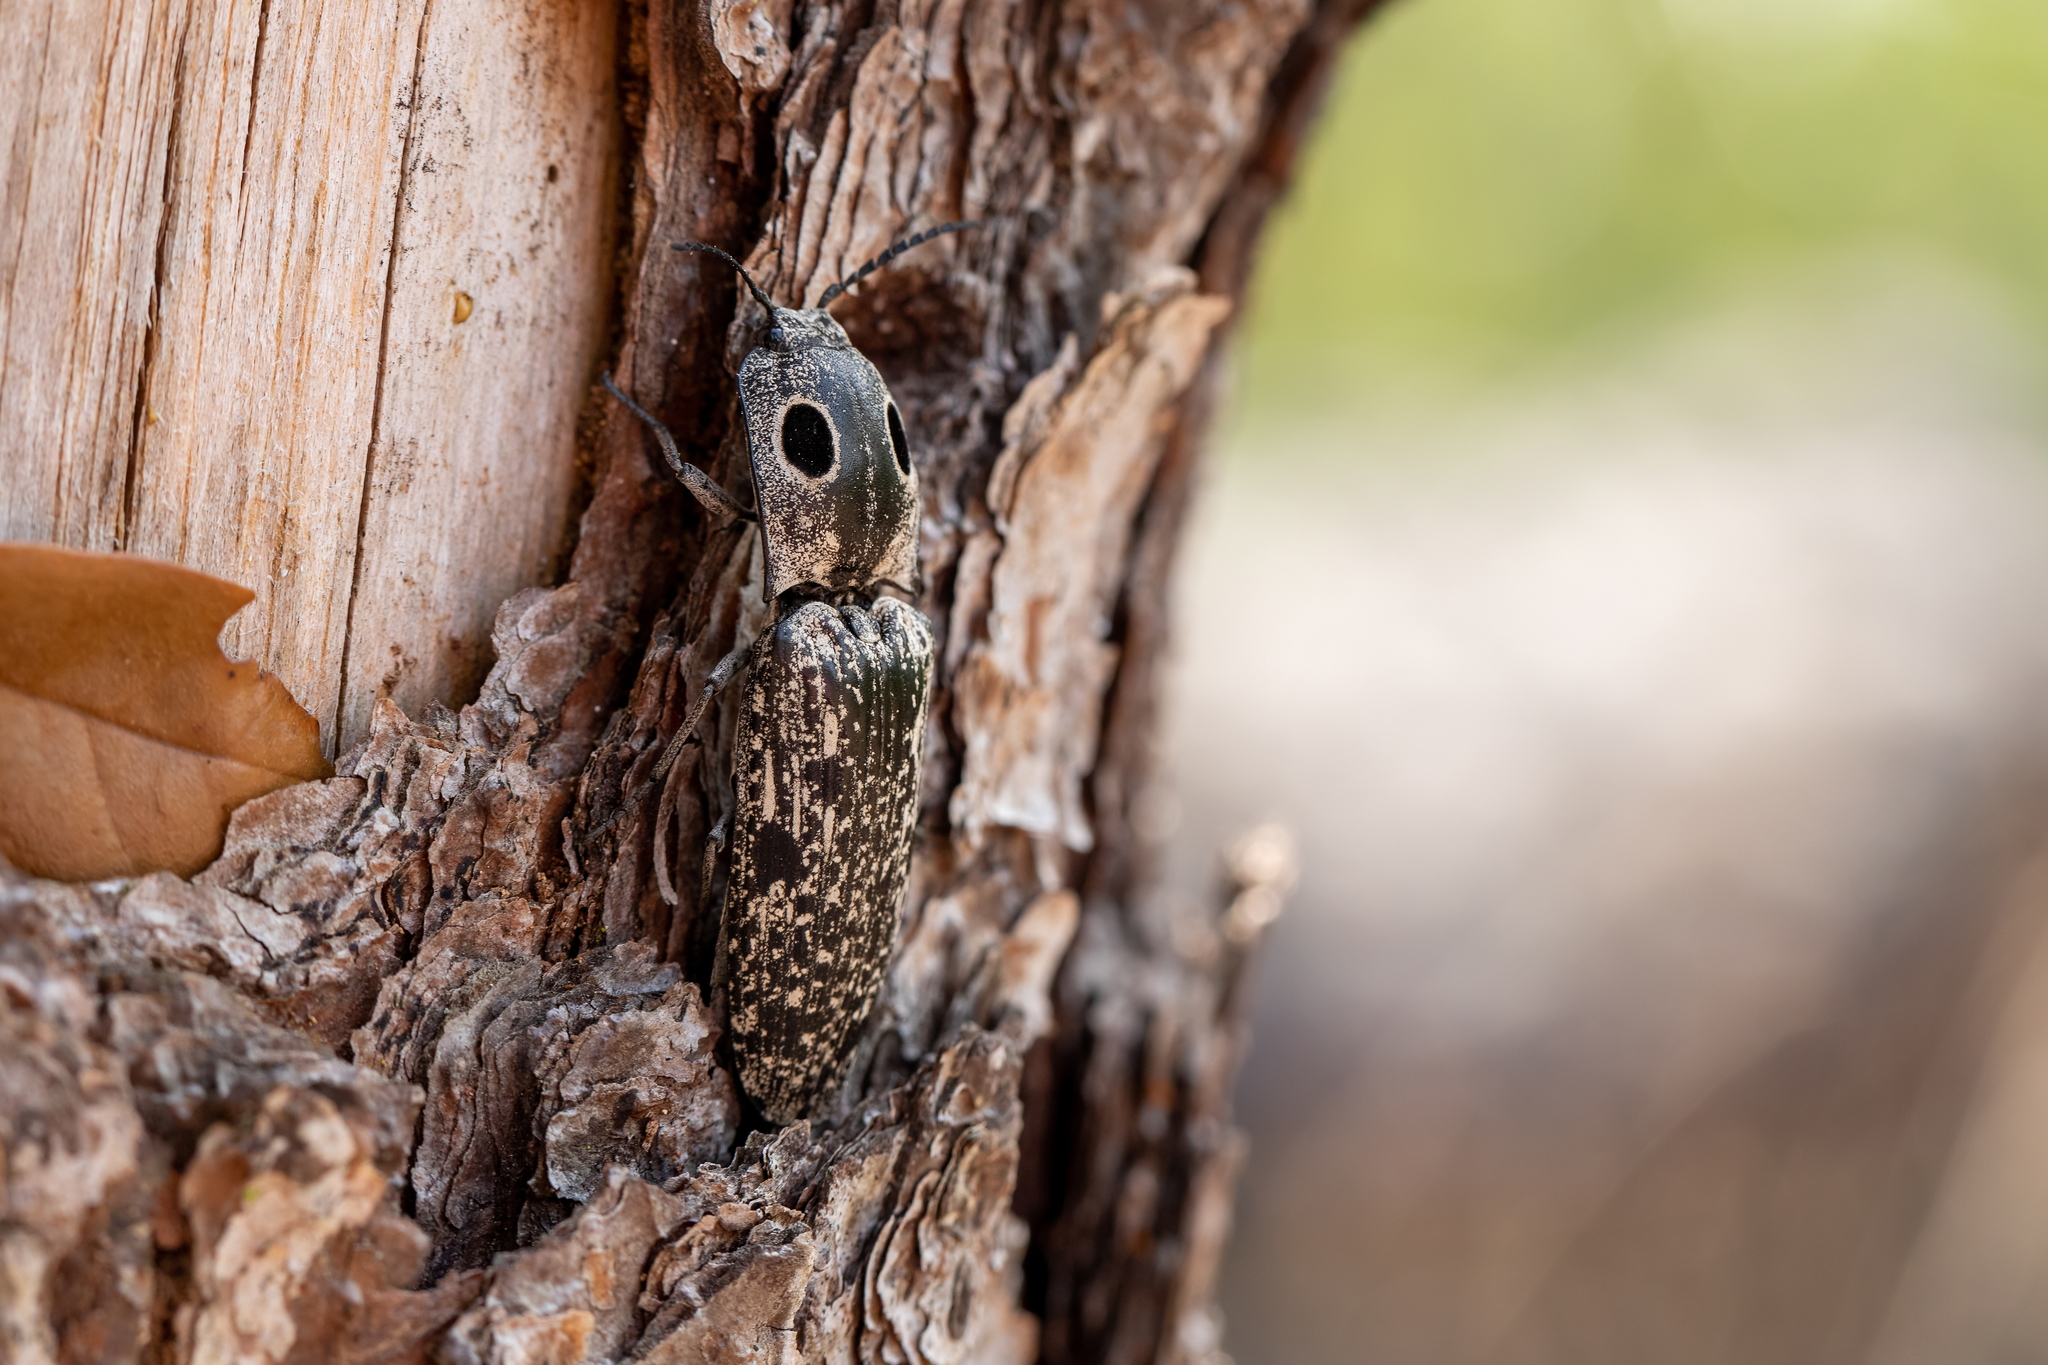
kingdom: Animalia
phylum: Arthropoda
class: Insecta
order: Coleoptera
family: Elateridae
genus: Alaus
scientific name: Alaus oculatus
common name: Eastern eyed click beetle
